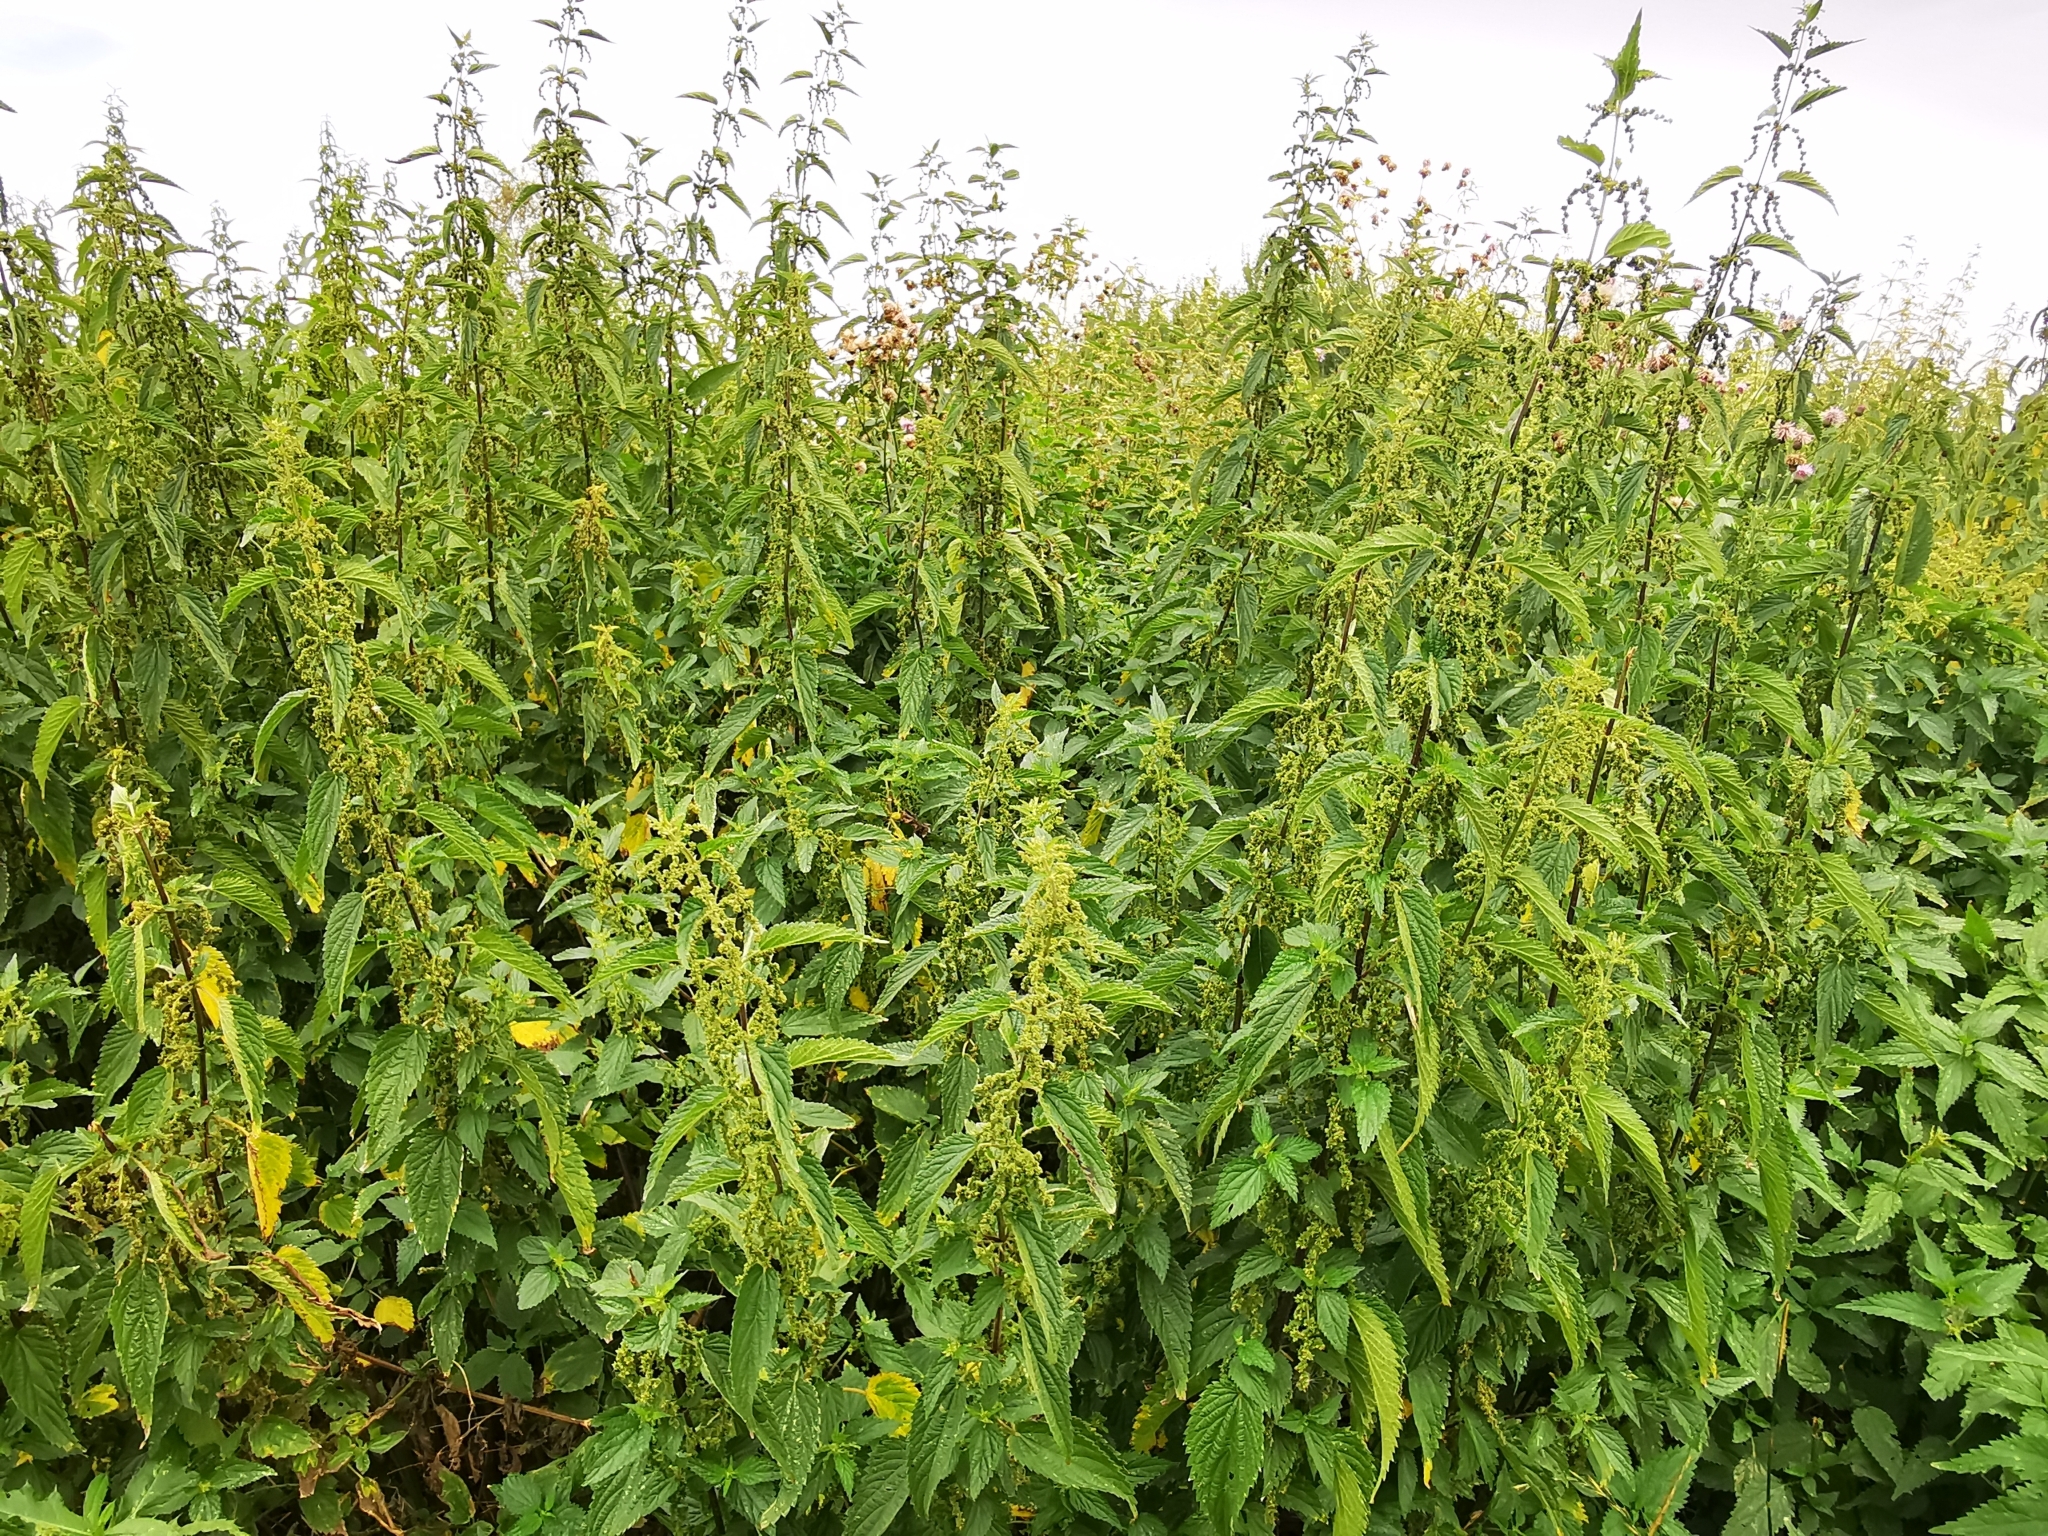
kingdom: Plantae
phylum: Tracheophyta
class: Magnoliopsida
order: Rosales
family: Urticaceae
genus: Urtica
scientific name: Urtica dioica
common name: Common nettle
